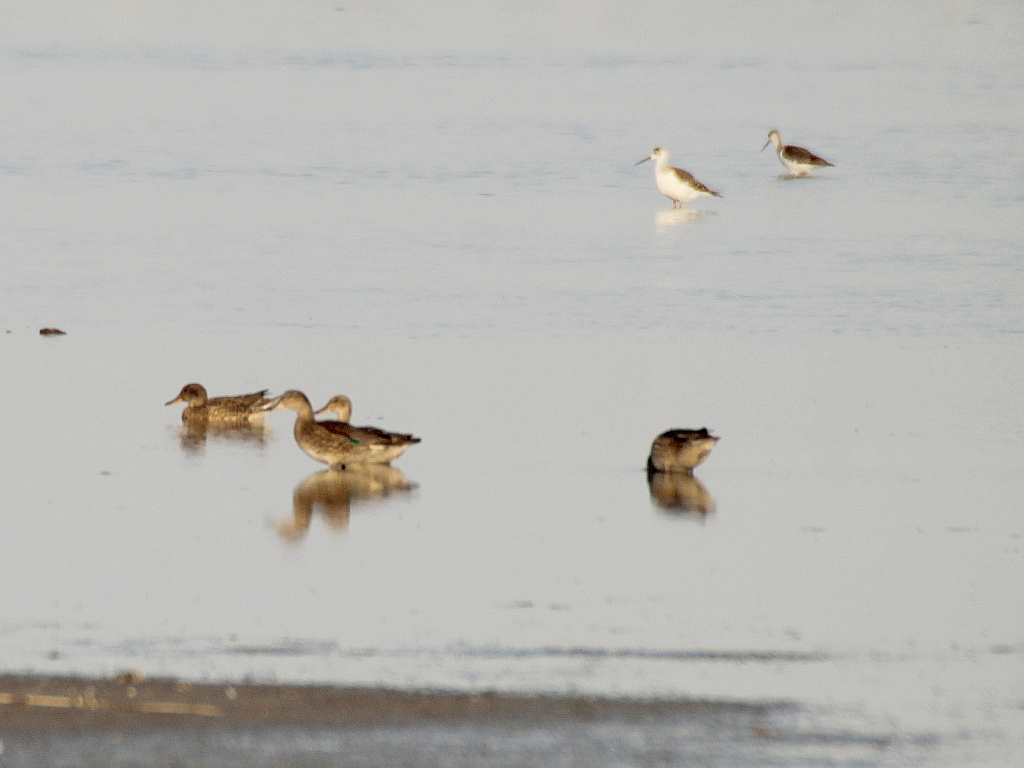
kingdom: Animalia
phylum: Chordata
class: Aves
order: Anseriformes
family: Anatidae
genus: Anas
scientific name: Anas crecca
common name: Eurasian teal
